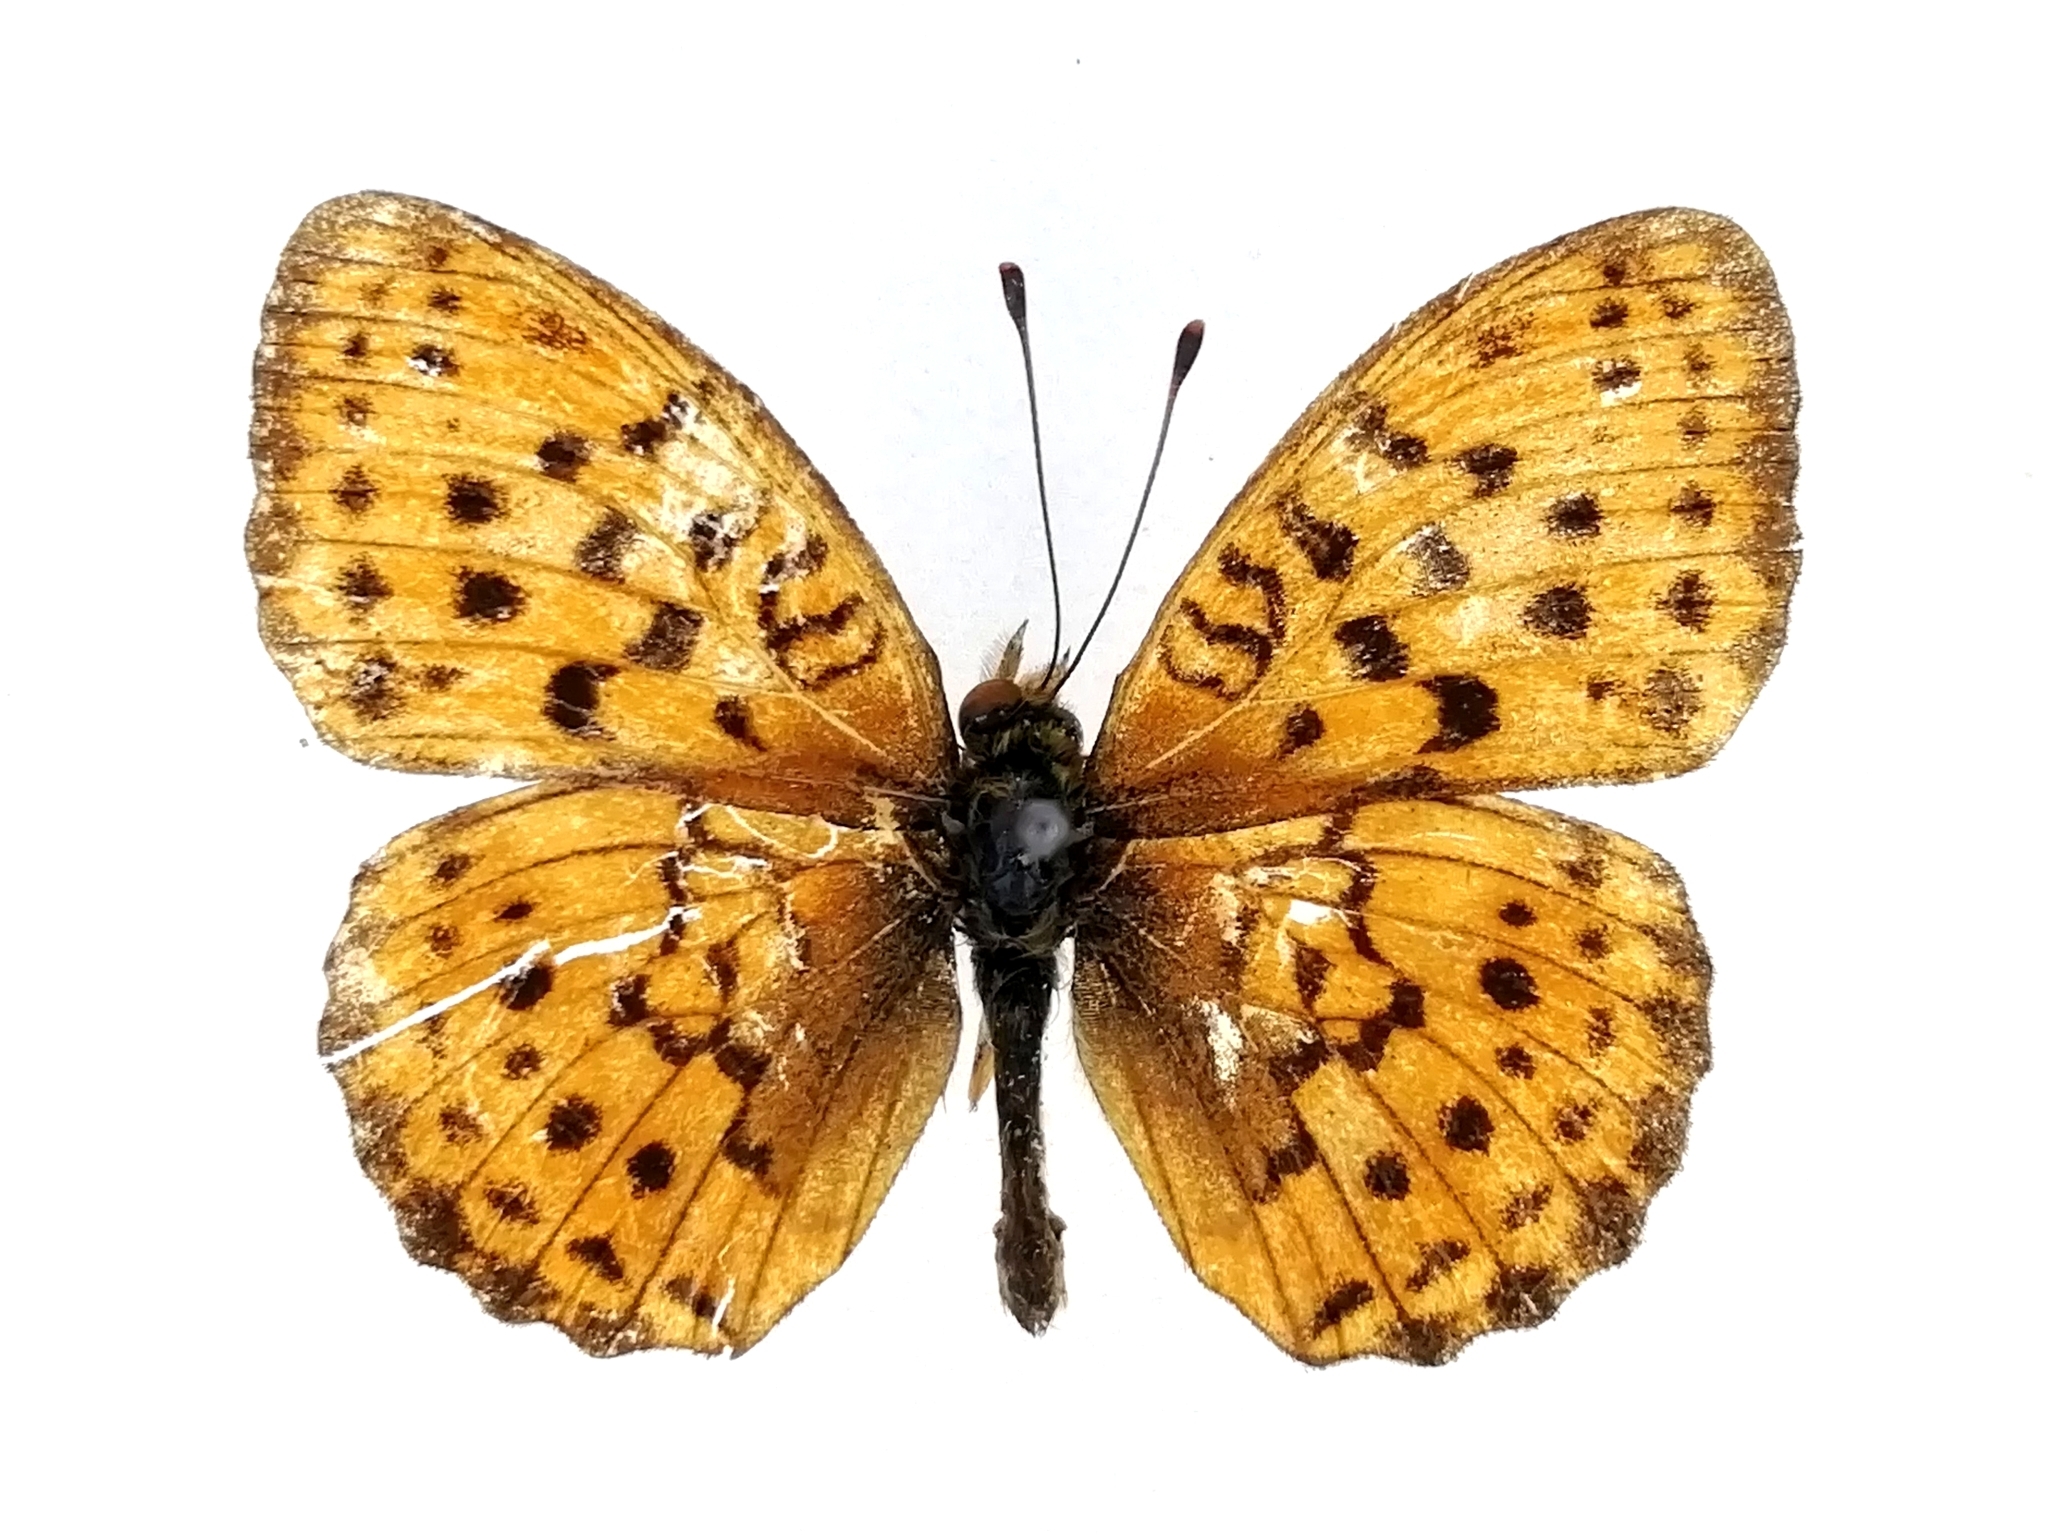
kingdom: Animalia
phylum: Arthropoda
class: Insecta
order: Lepidoptera
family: Nymphalidae
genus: Brenthis
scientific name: Brenthis daphne
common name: Marbled fritillary
